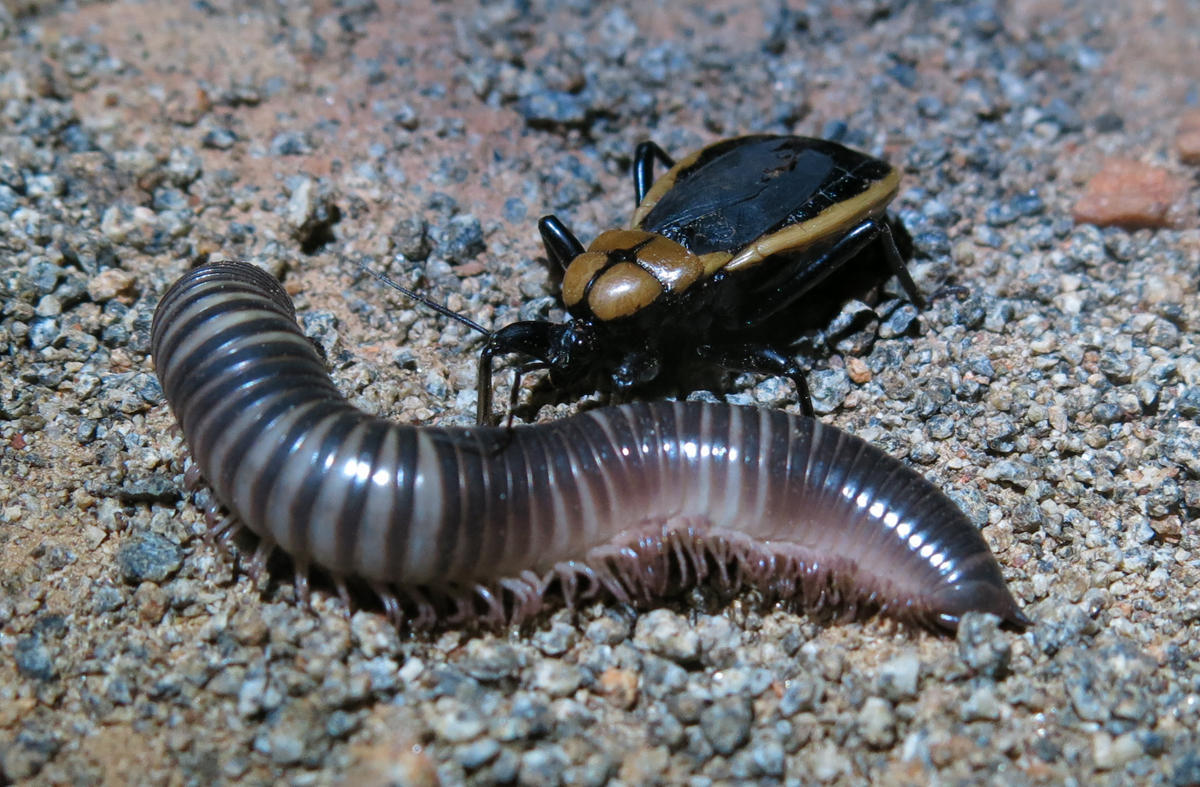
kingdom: Animalia
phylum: Arthropoda
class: Insecta
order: Hemiptera
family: Reduviidae
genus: Ectrichodia
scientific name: Ectrichodia crux
